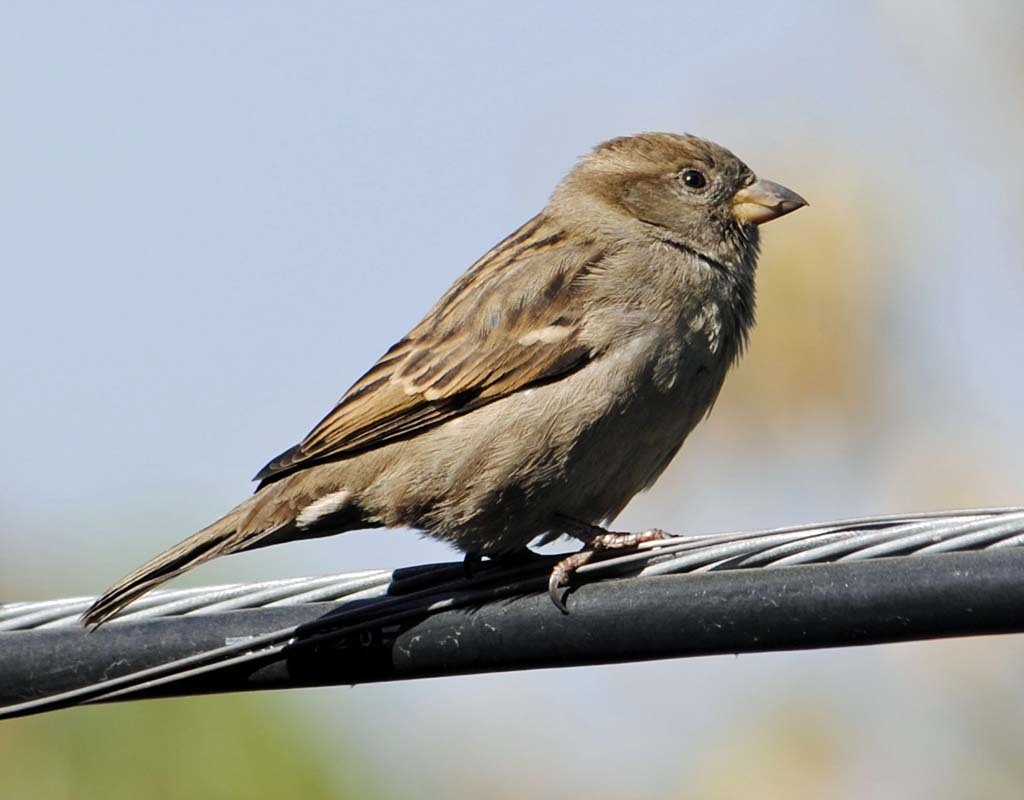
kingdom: Animalia
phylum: Chordata
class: Aves
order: Passeriformes
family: Passeridae
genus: Passer
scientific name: Passer domesticus
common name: House sparrow
